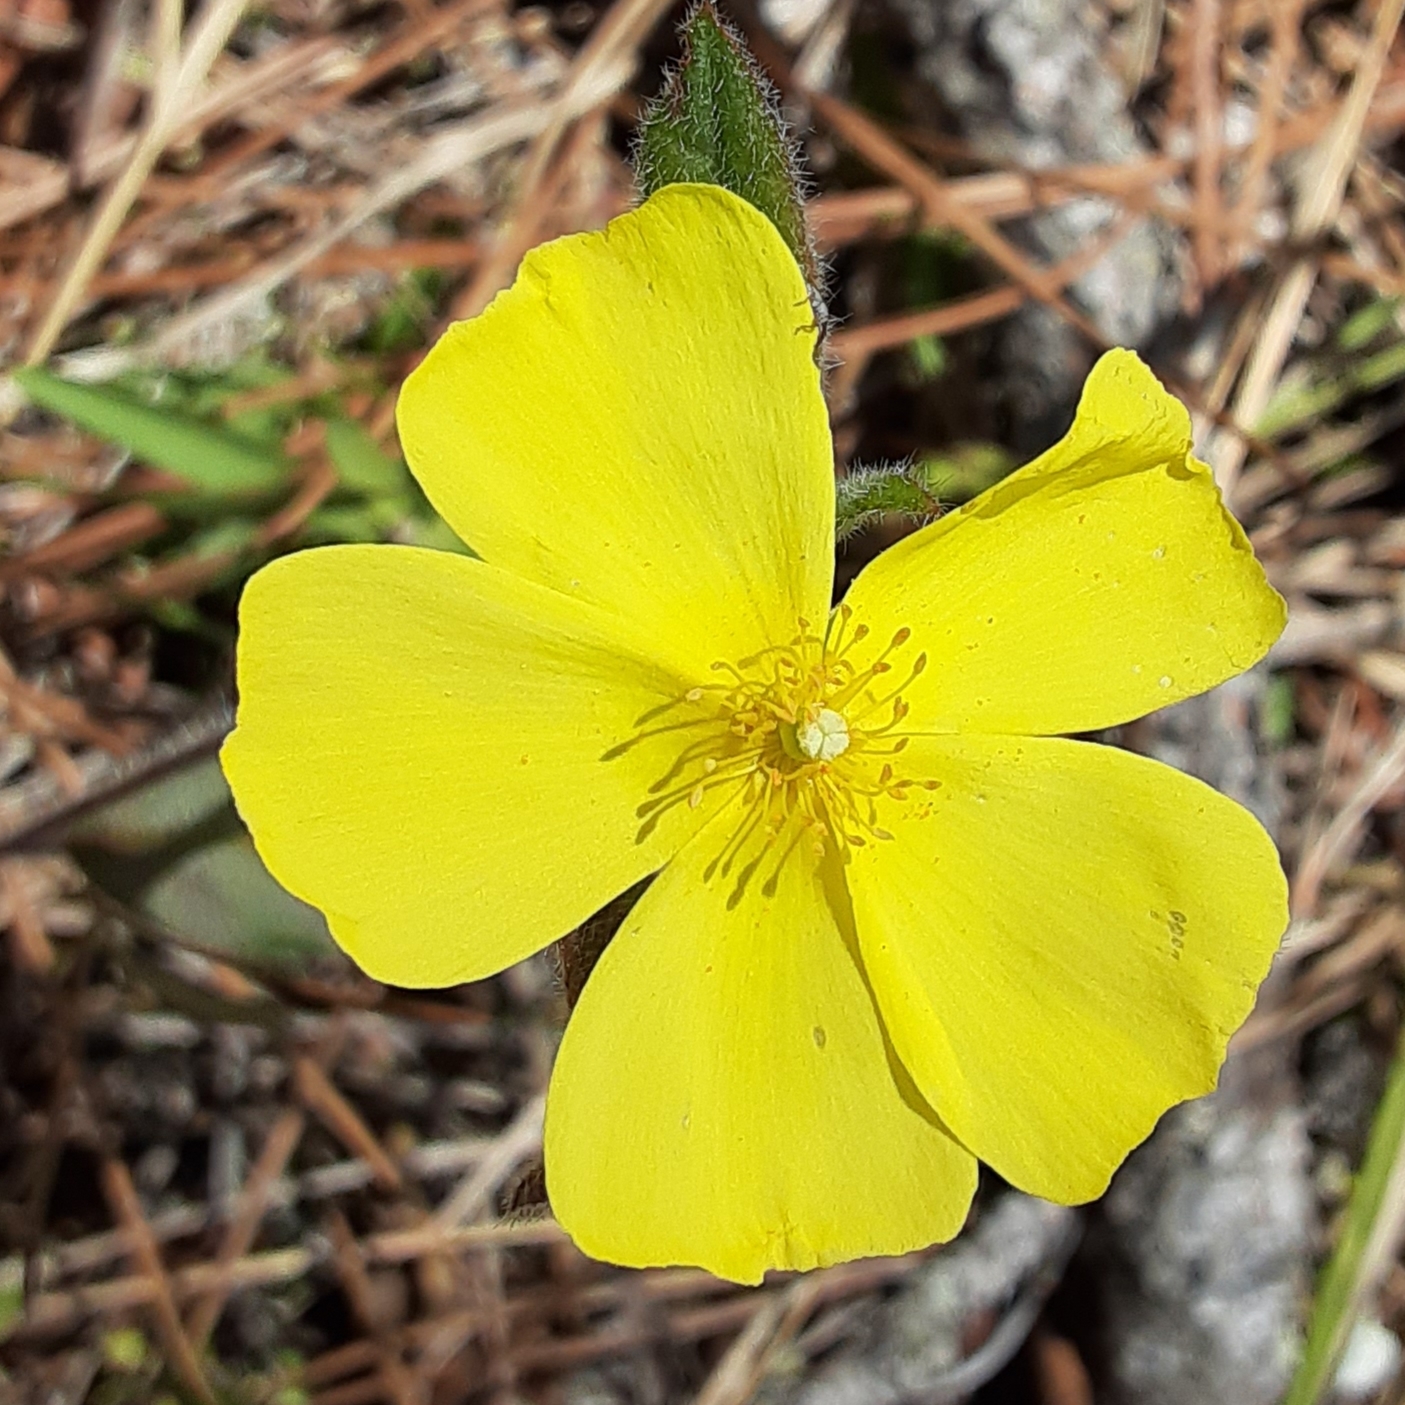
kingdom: Plantae
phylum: Tracheophyta
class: Magnoliopsida
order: Malvales
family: Cistaceae
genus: Crocanthemum
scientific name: Crocanthemum carolinianum
